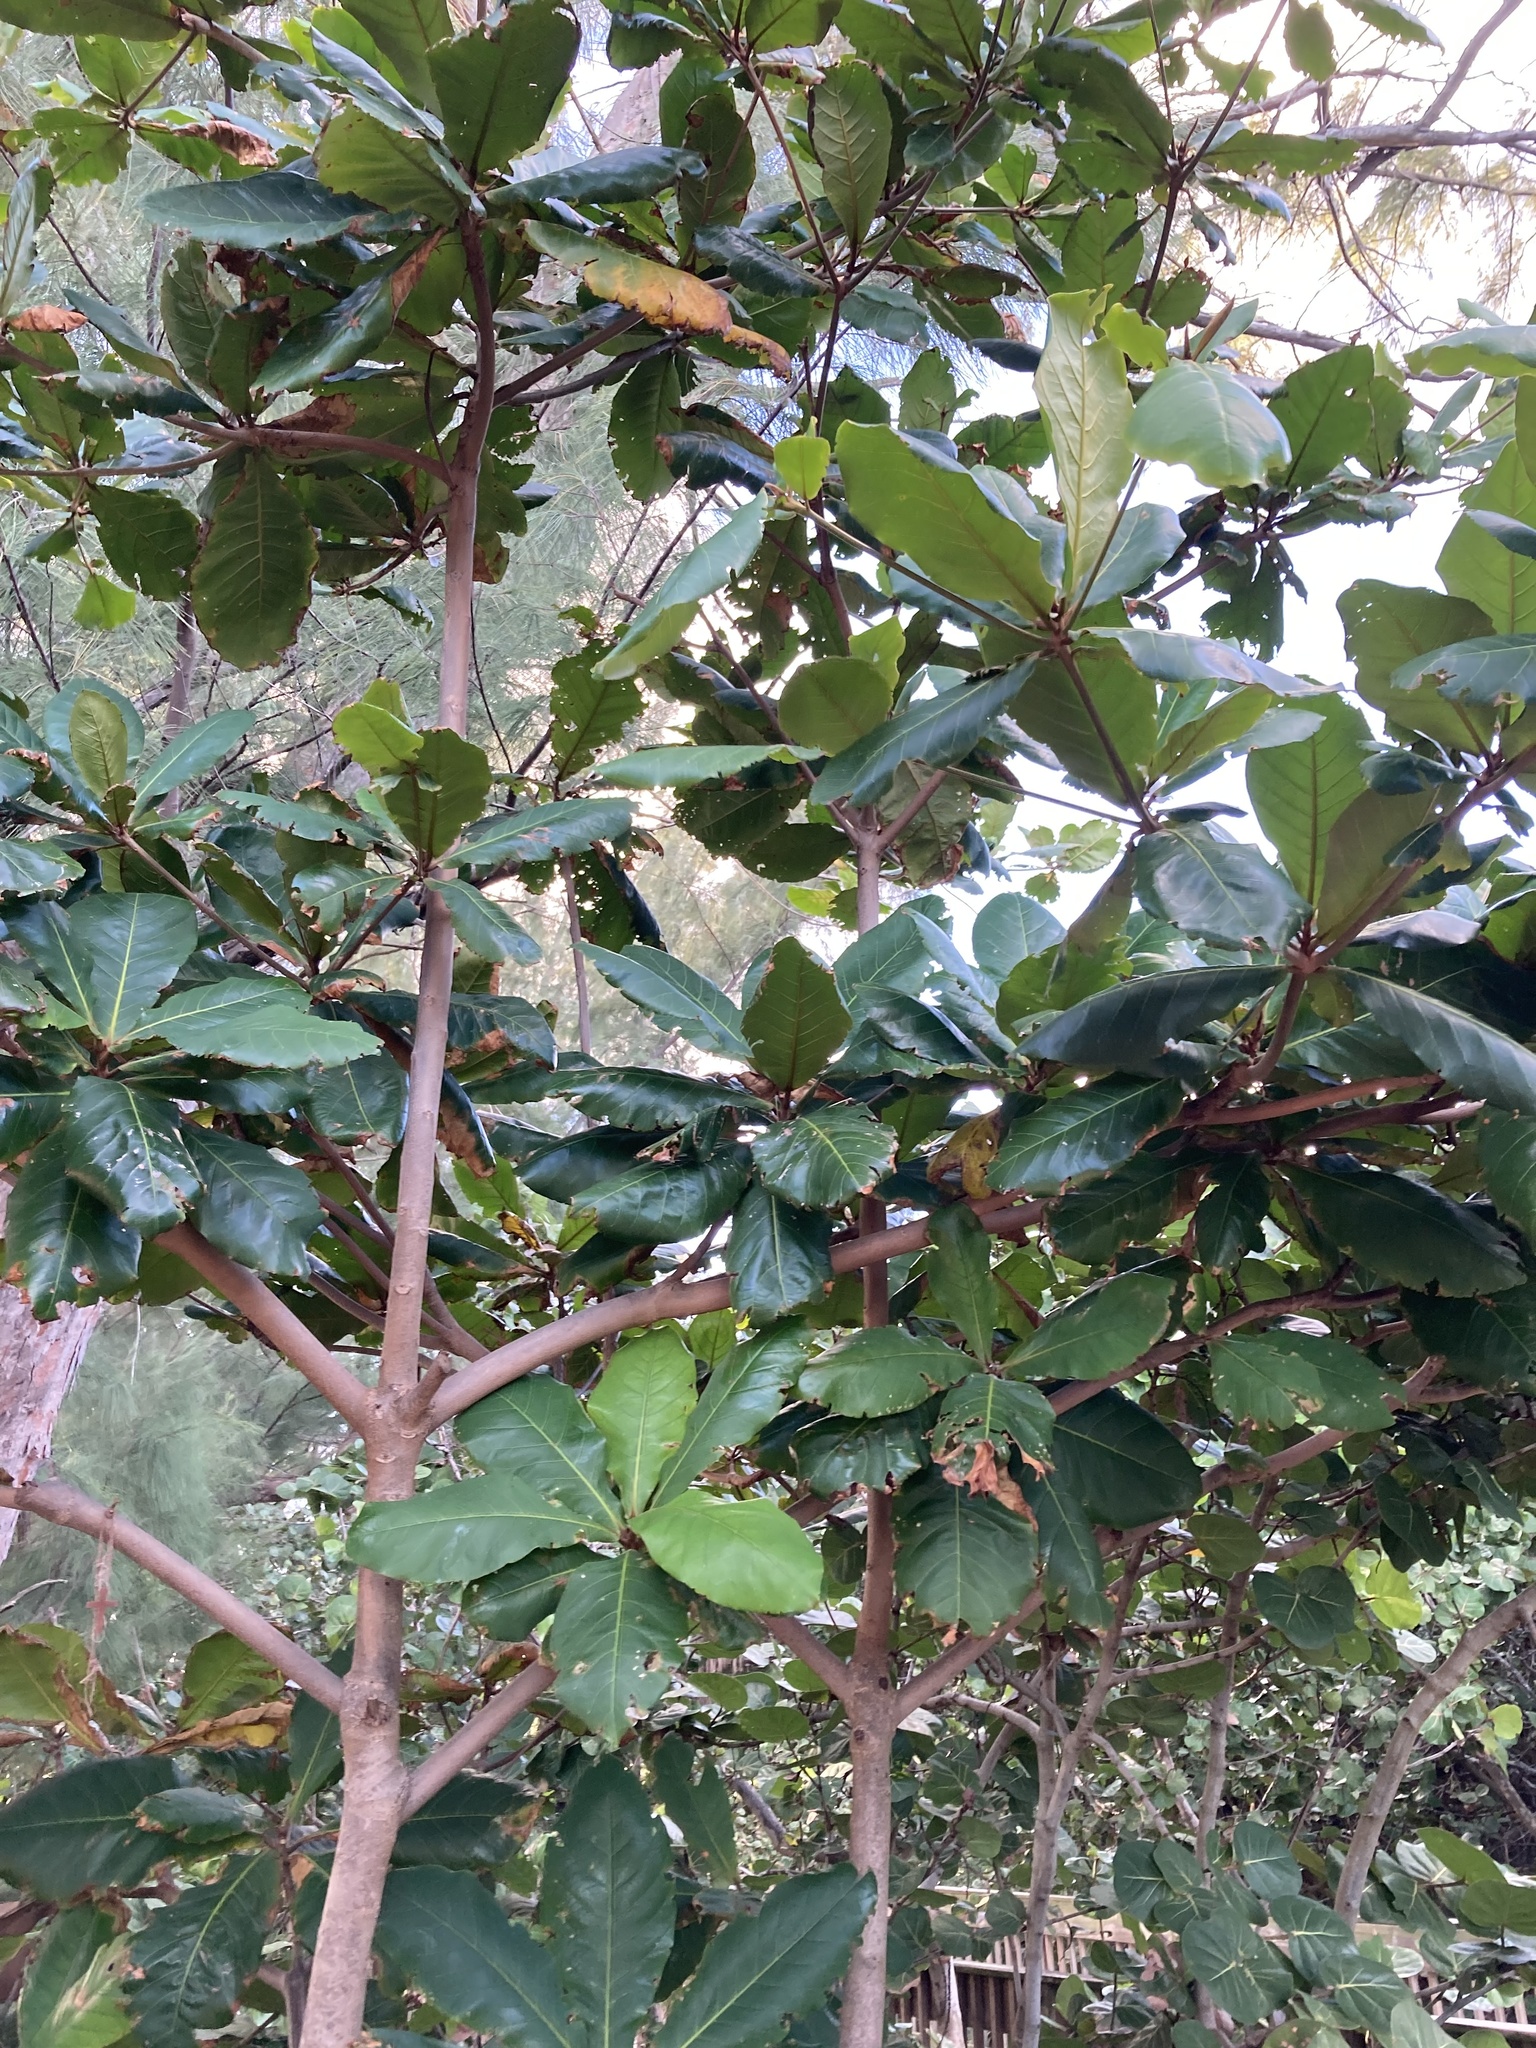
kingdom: Plantae
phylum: Tracheophyta
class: Magnoliopsida
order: Myrtales
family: Combretaceae
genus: Terminalia
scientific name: Terminalia catappa
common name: Tropical almond
